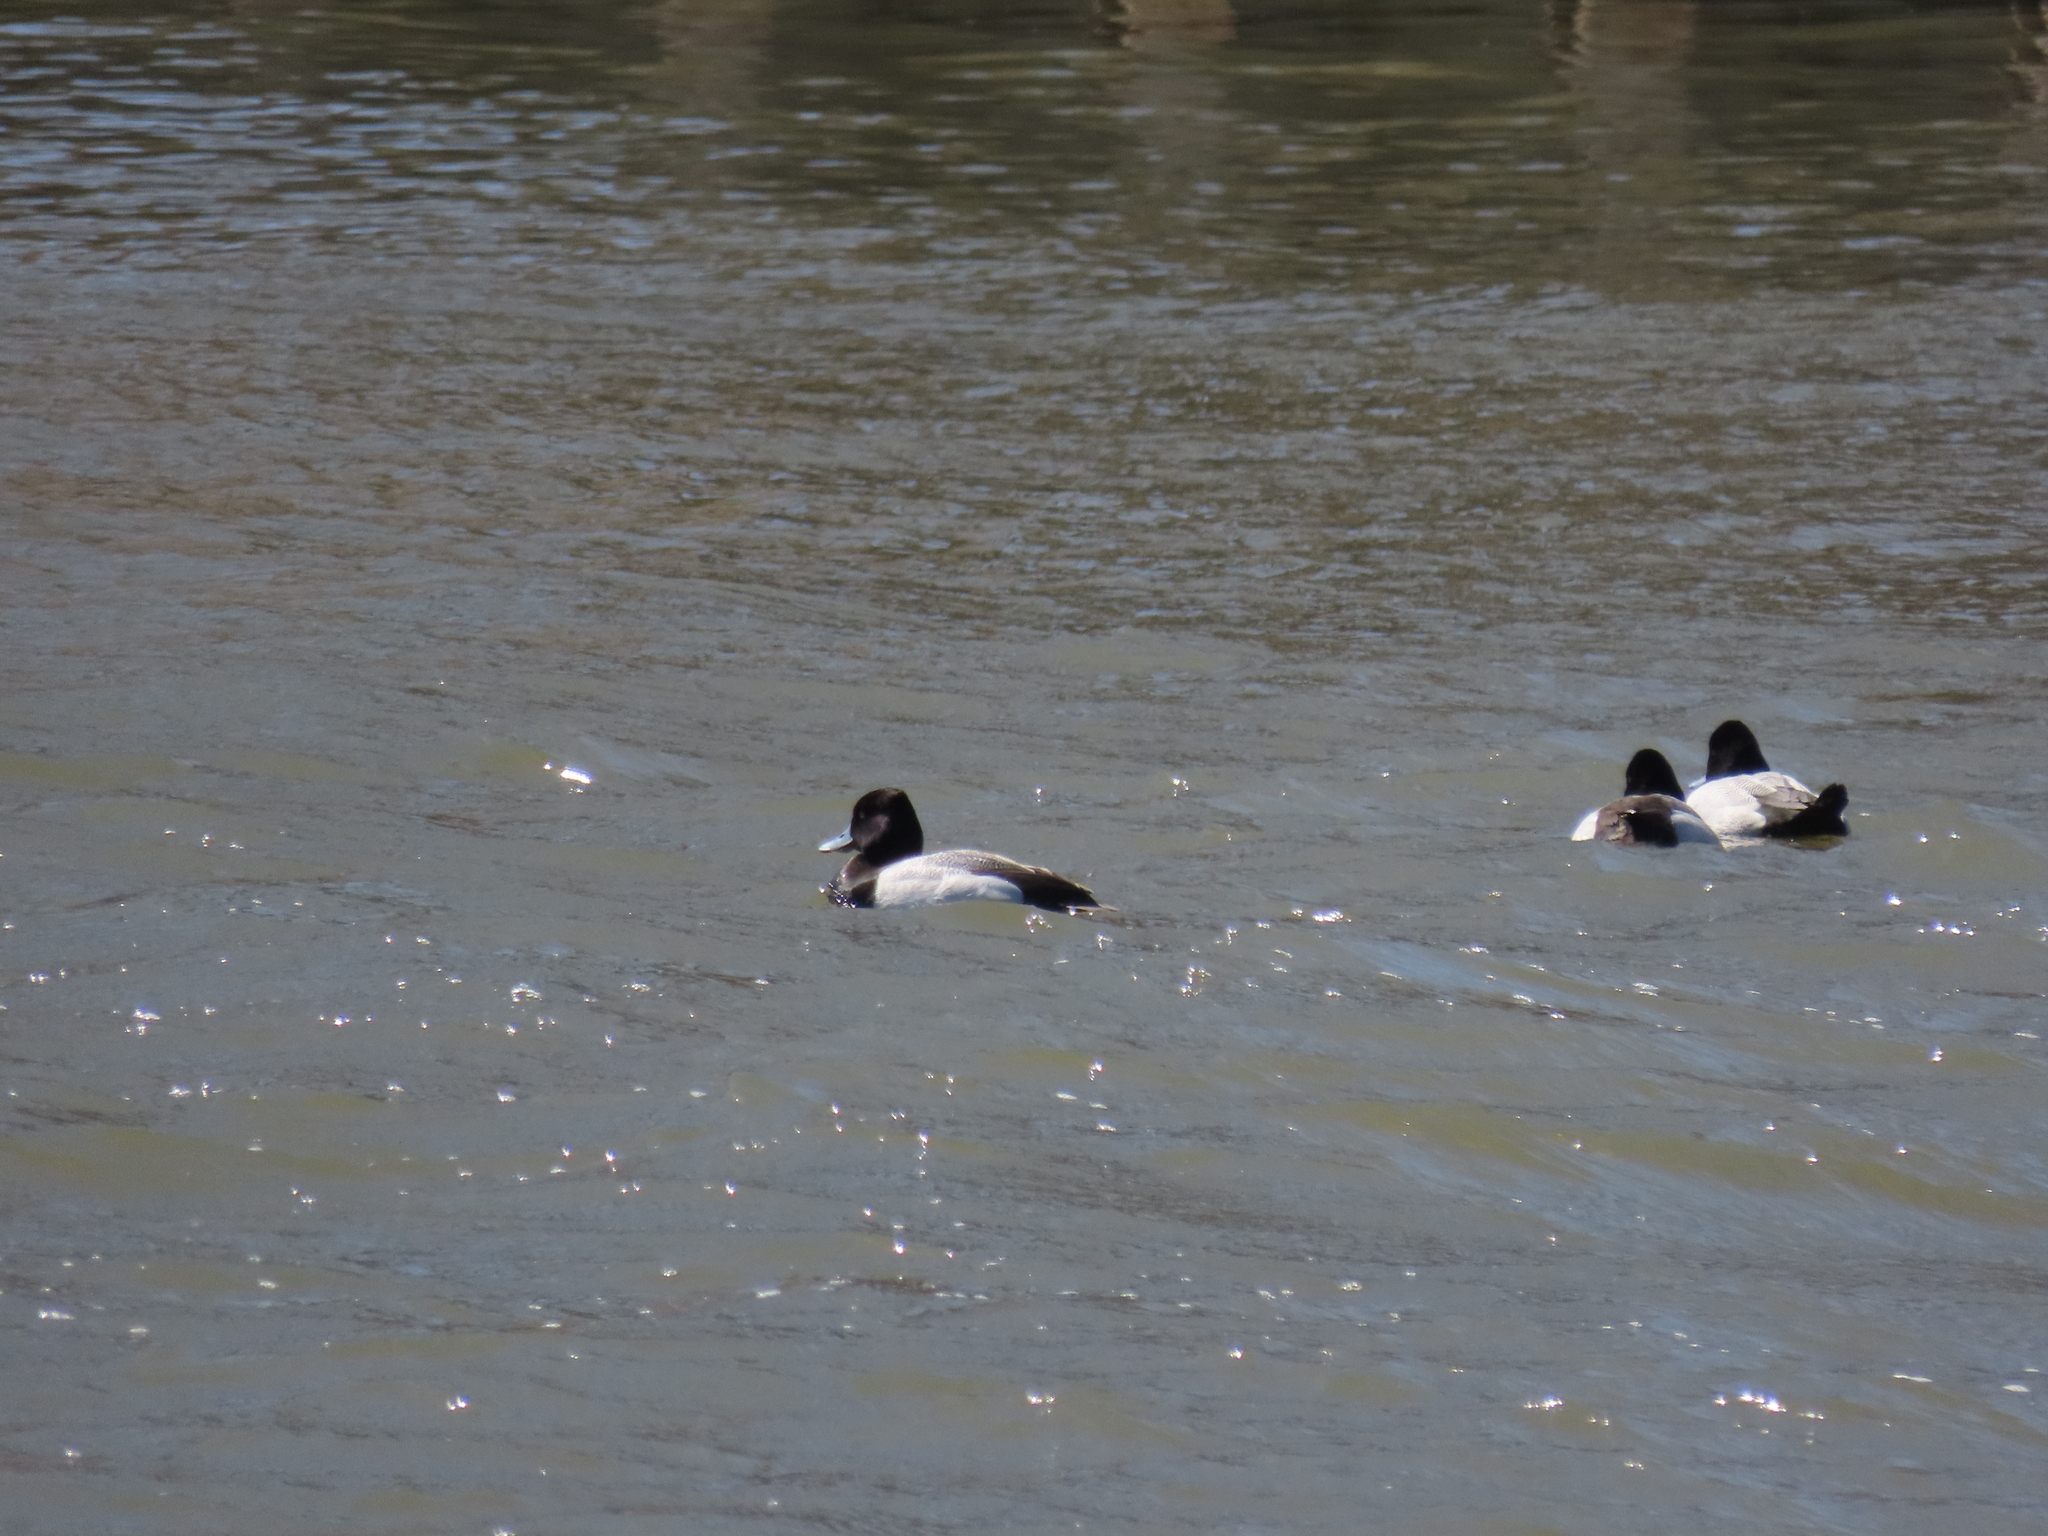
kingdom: Animalia
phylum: Chordata
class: Aves
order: Anseriformes
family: Anatidae
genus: Aythya
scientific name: Aythya affinis
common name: Lesser scaup
